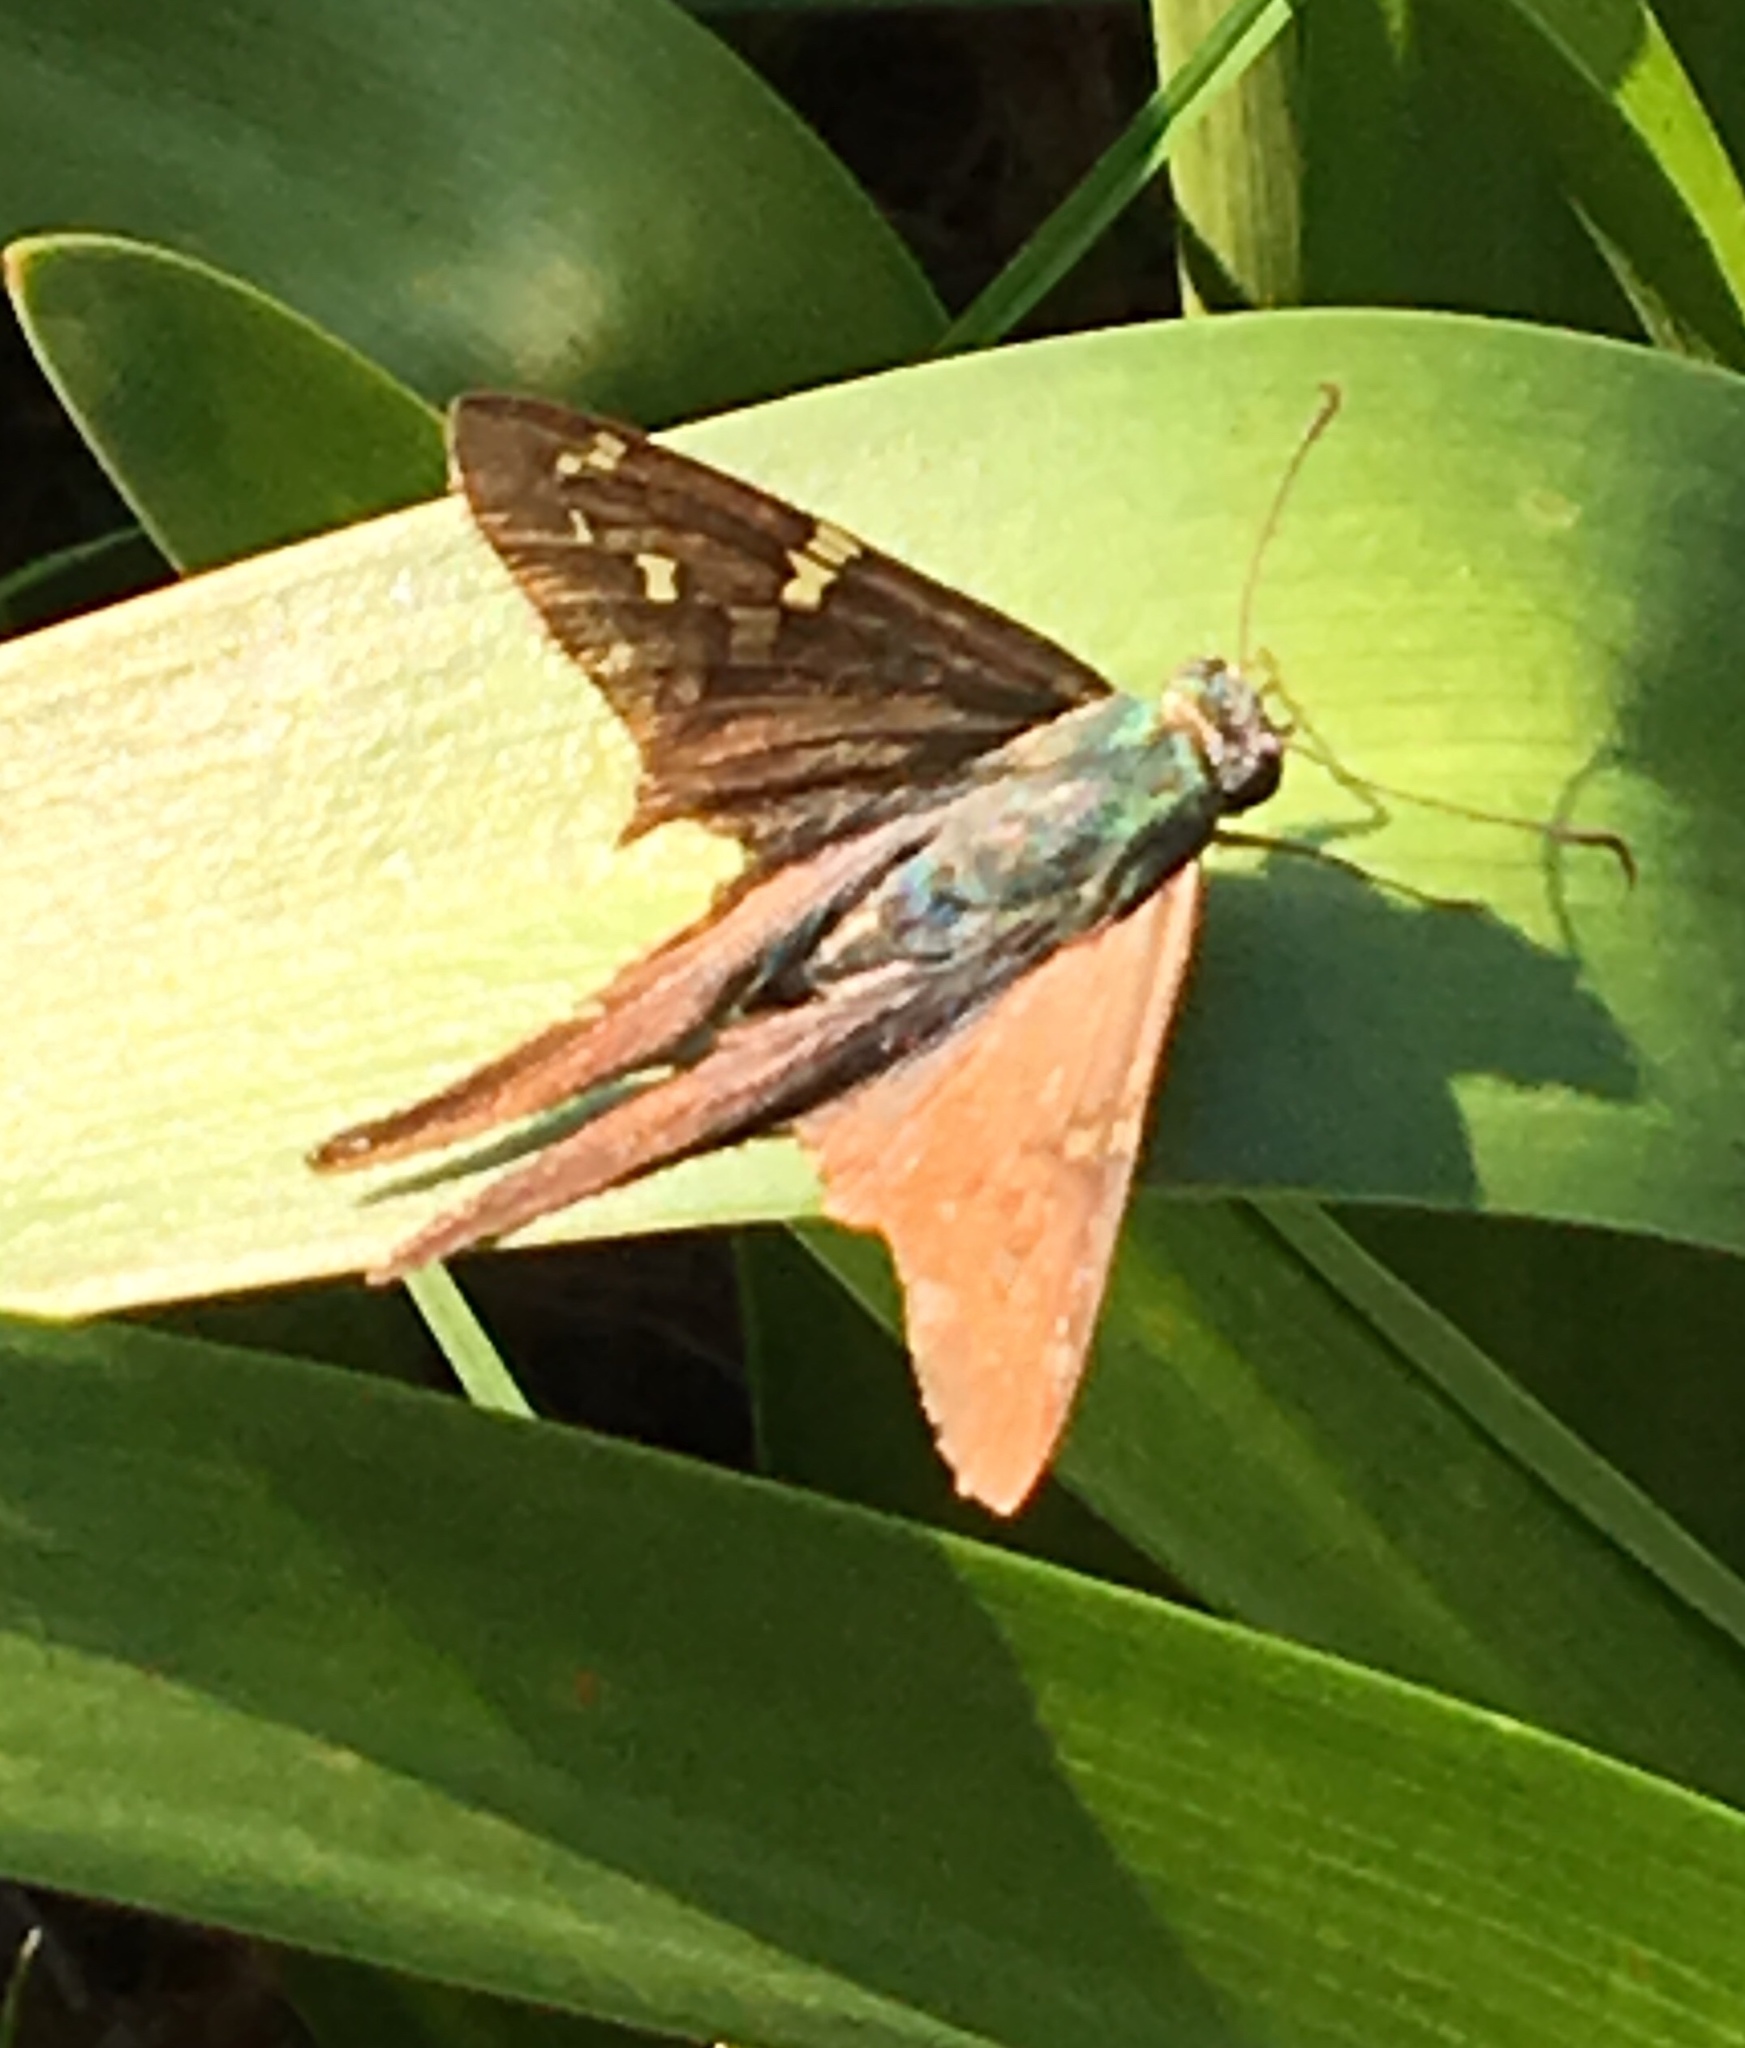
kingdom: Animalia
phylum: Arthropoda
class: Insecta
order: Lepidoptera
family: Hesperiidae
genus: Urbanus
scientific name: Urbanus proteus
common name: Long-tailed skipper
